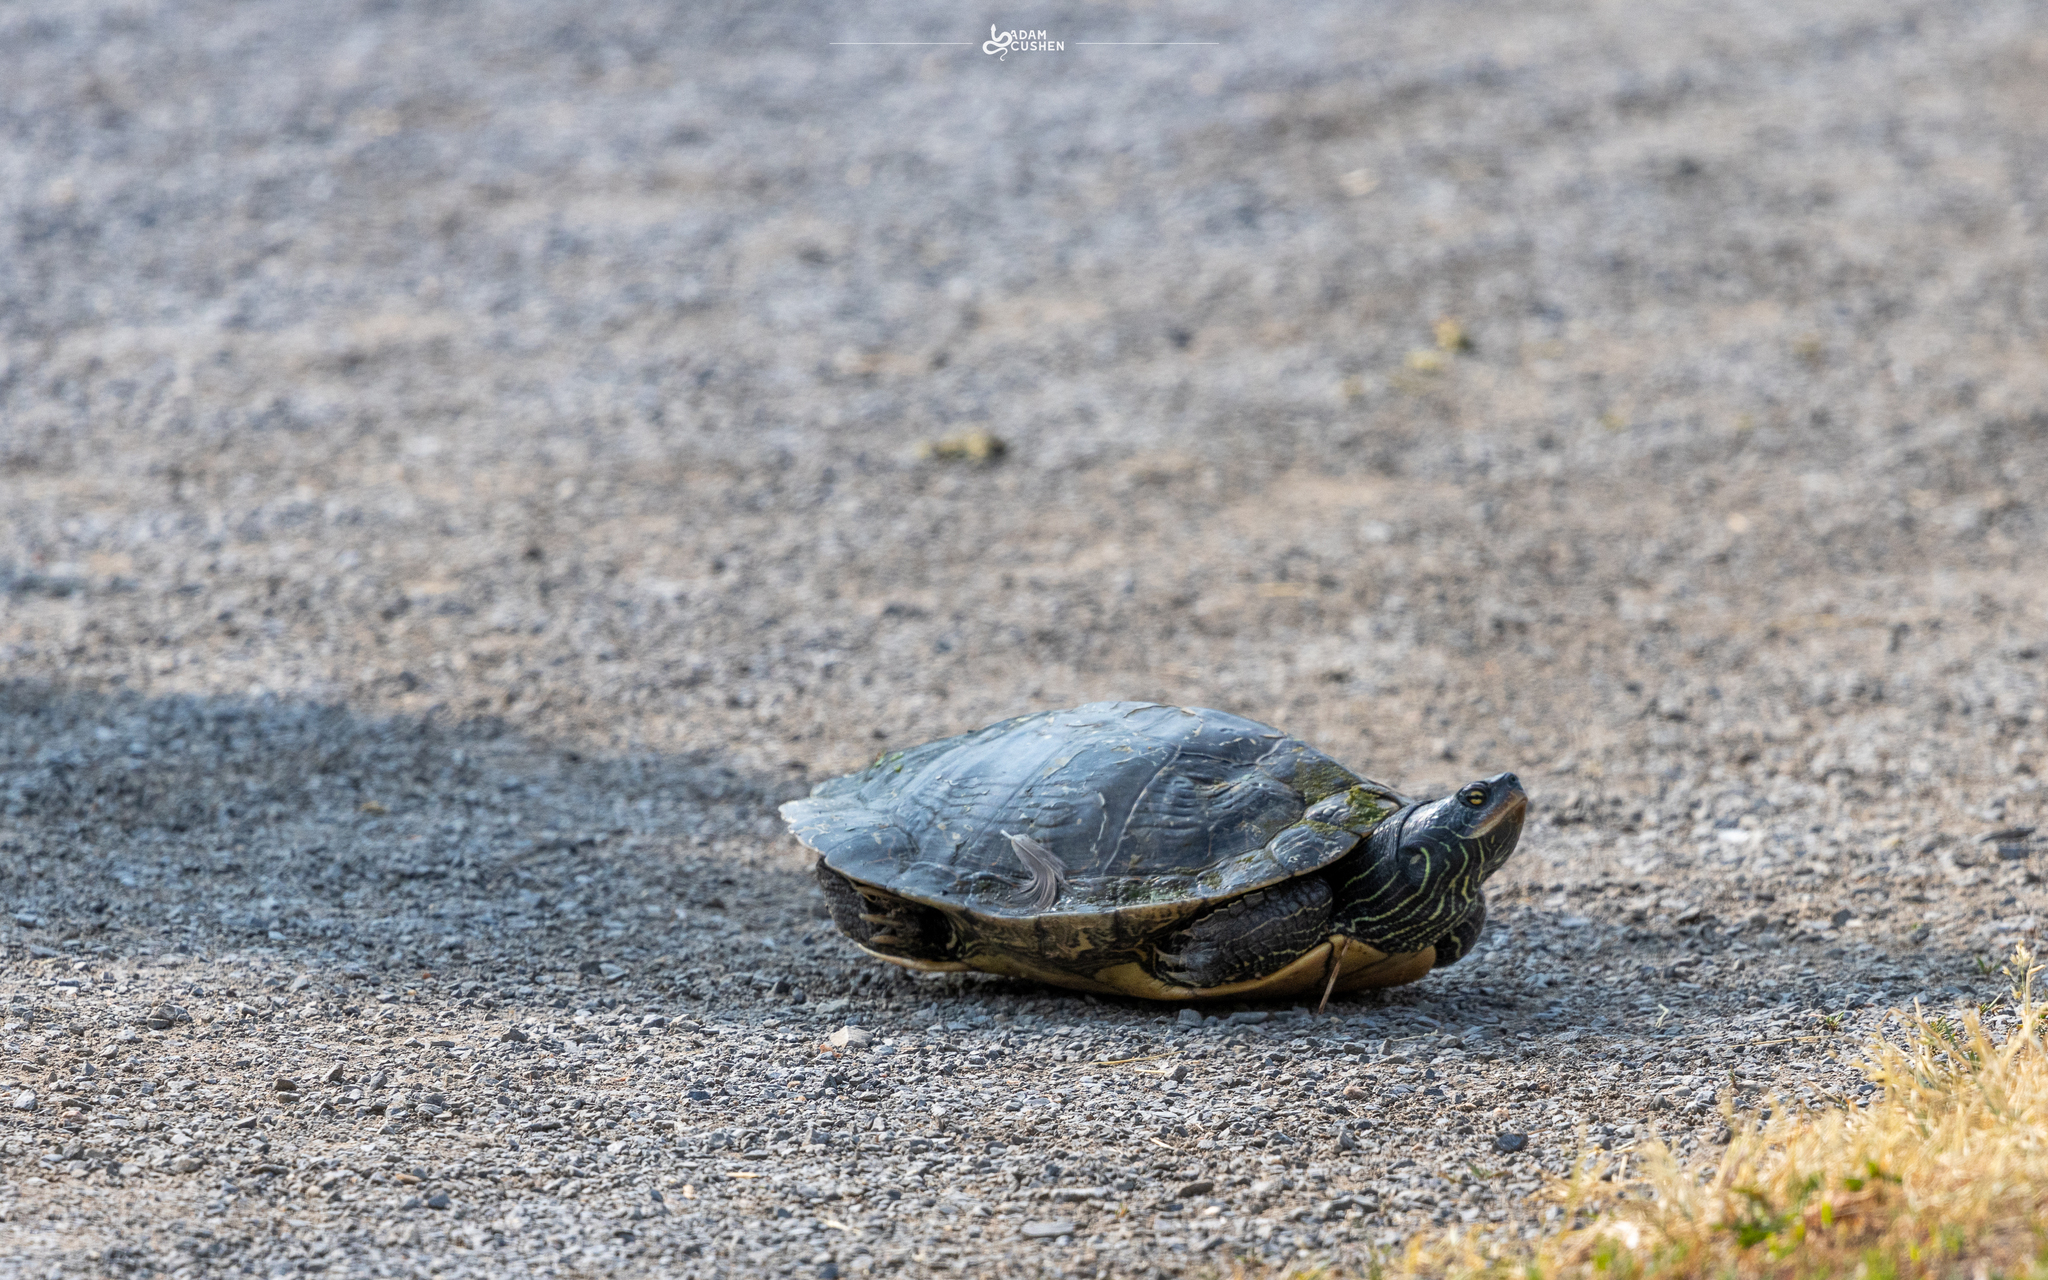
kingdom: Animalia
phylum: Chordata
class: Testudines
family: Emydidae
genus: Graptemys
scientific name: Graptemys geographica
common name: Common map turtle
